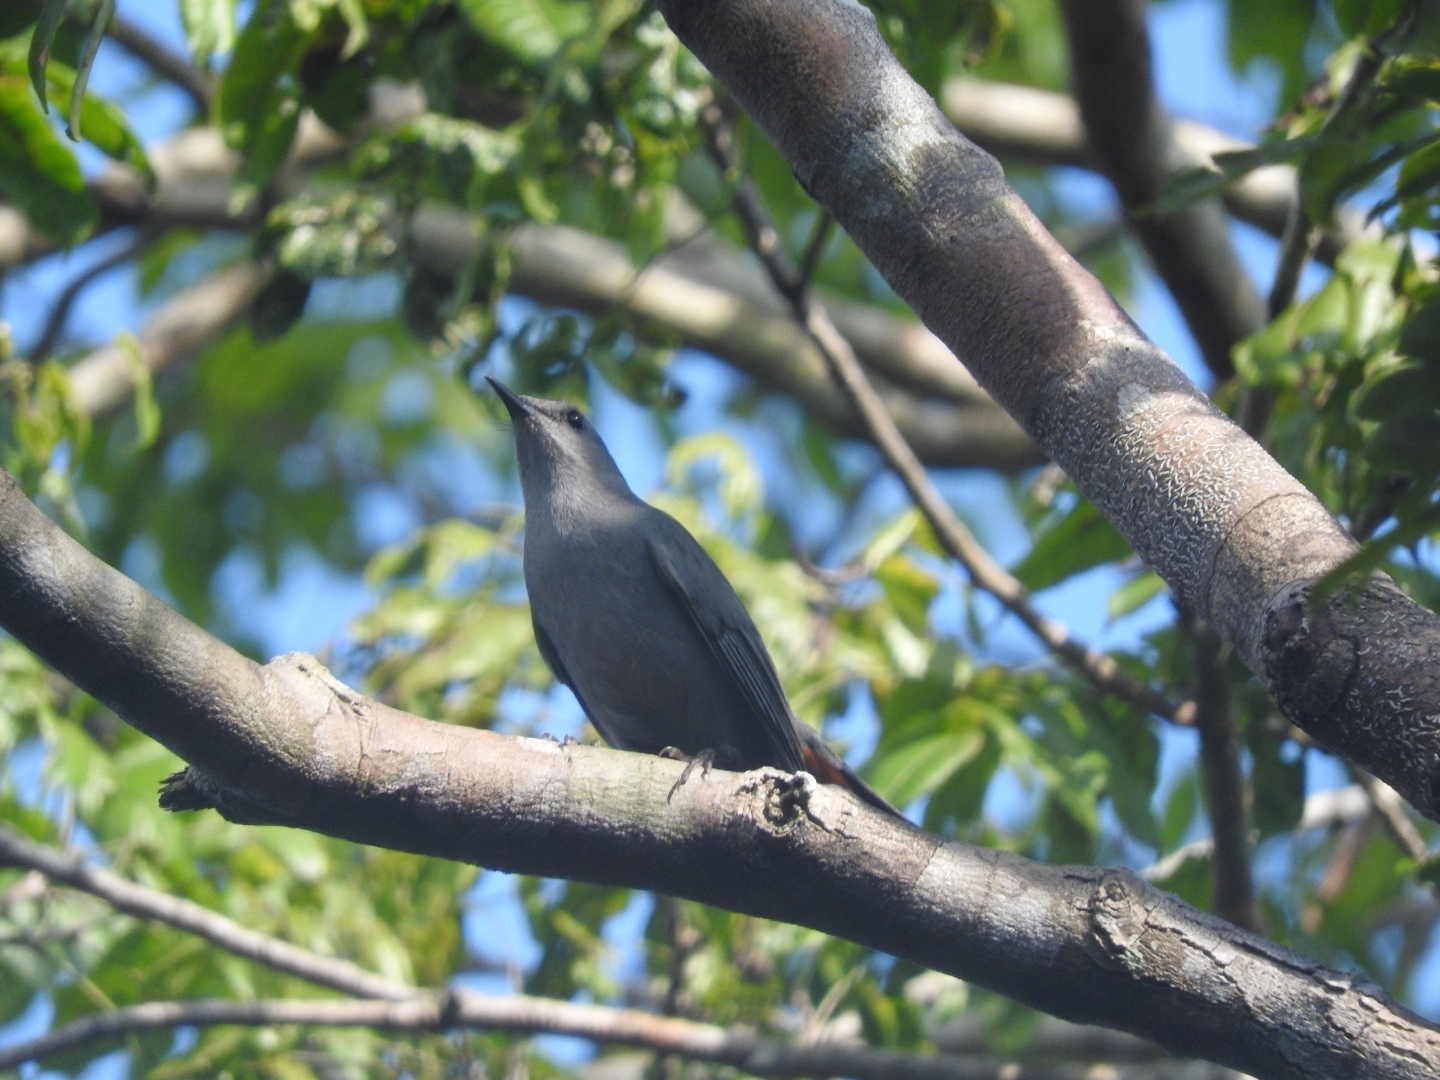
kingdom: Animalia
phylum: Chordata
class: Aves
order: Passeriformes
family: Mimidae
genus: Dumetella
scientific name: Dumetella carolinensis
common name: Gray catbird
